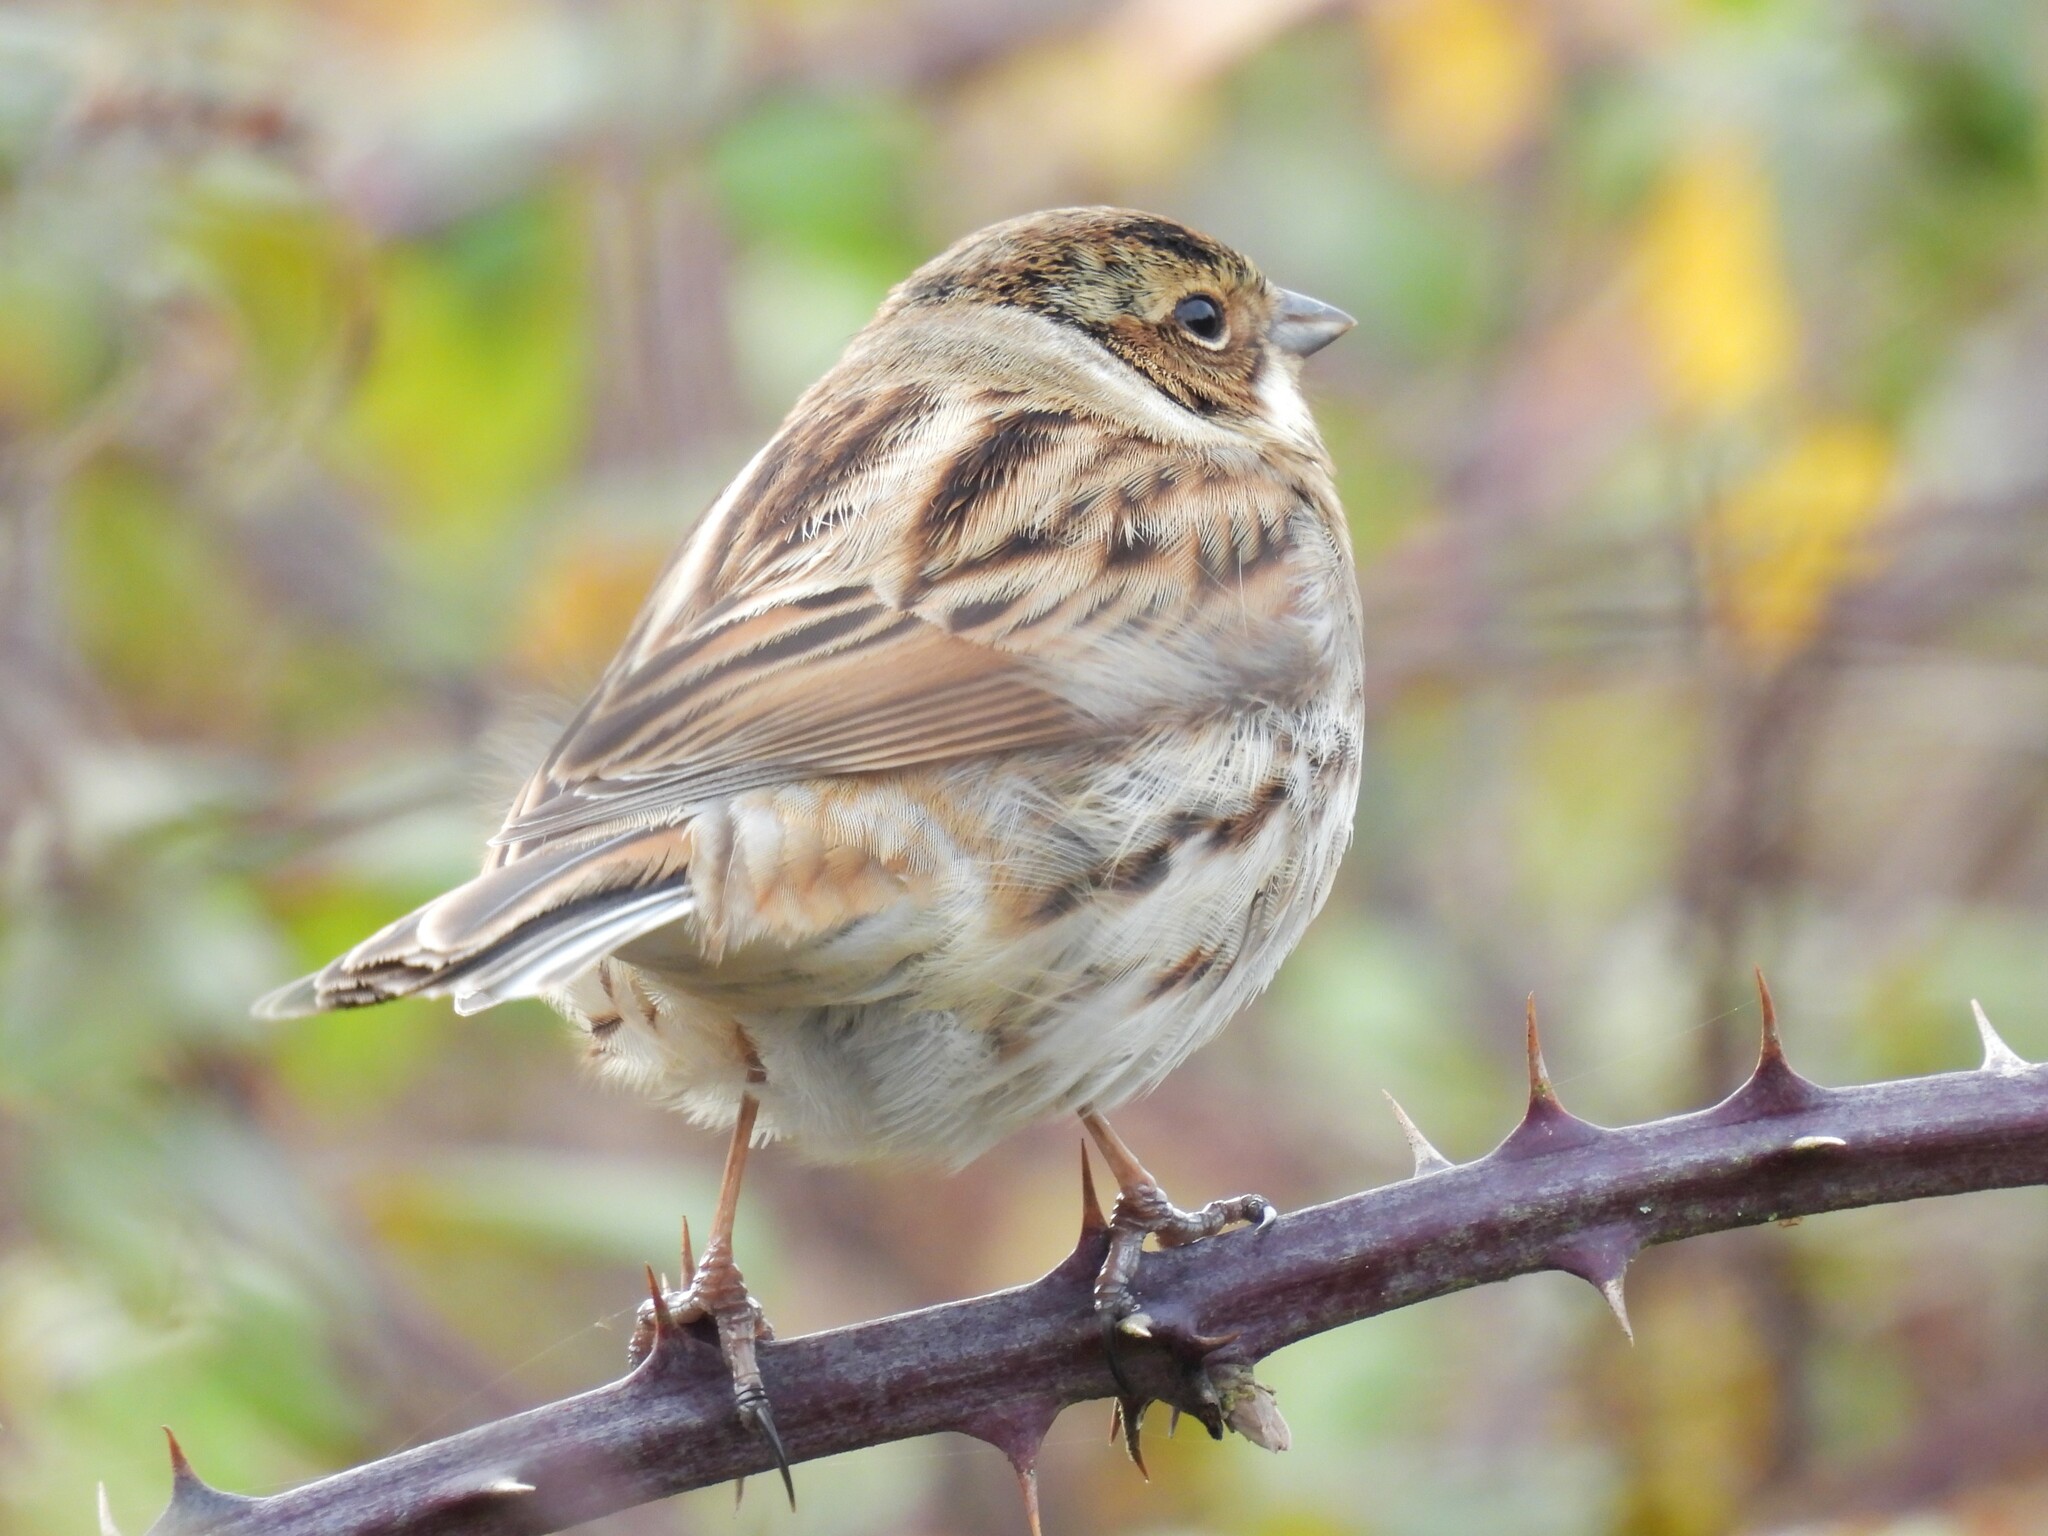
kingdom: Animalia
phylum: Chordata
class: Aves
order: Passeriformes
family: Emberizidae
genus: Emberiza
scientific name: Emberiza schoeniclus
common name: Reed bunting
